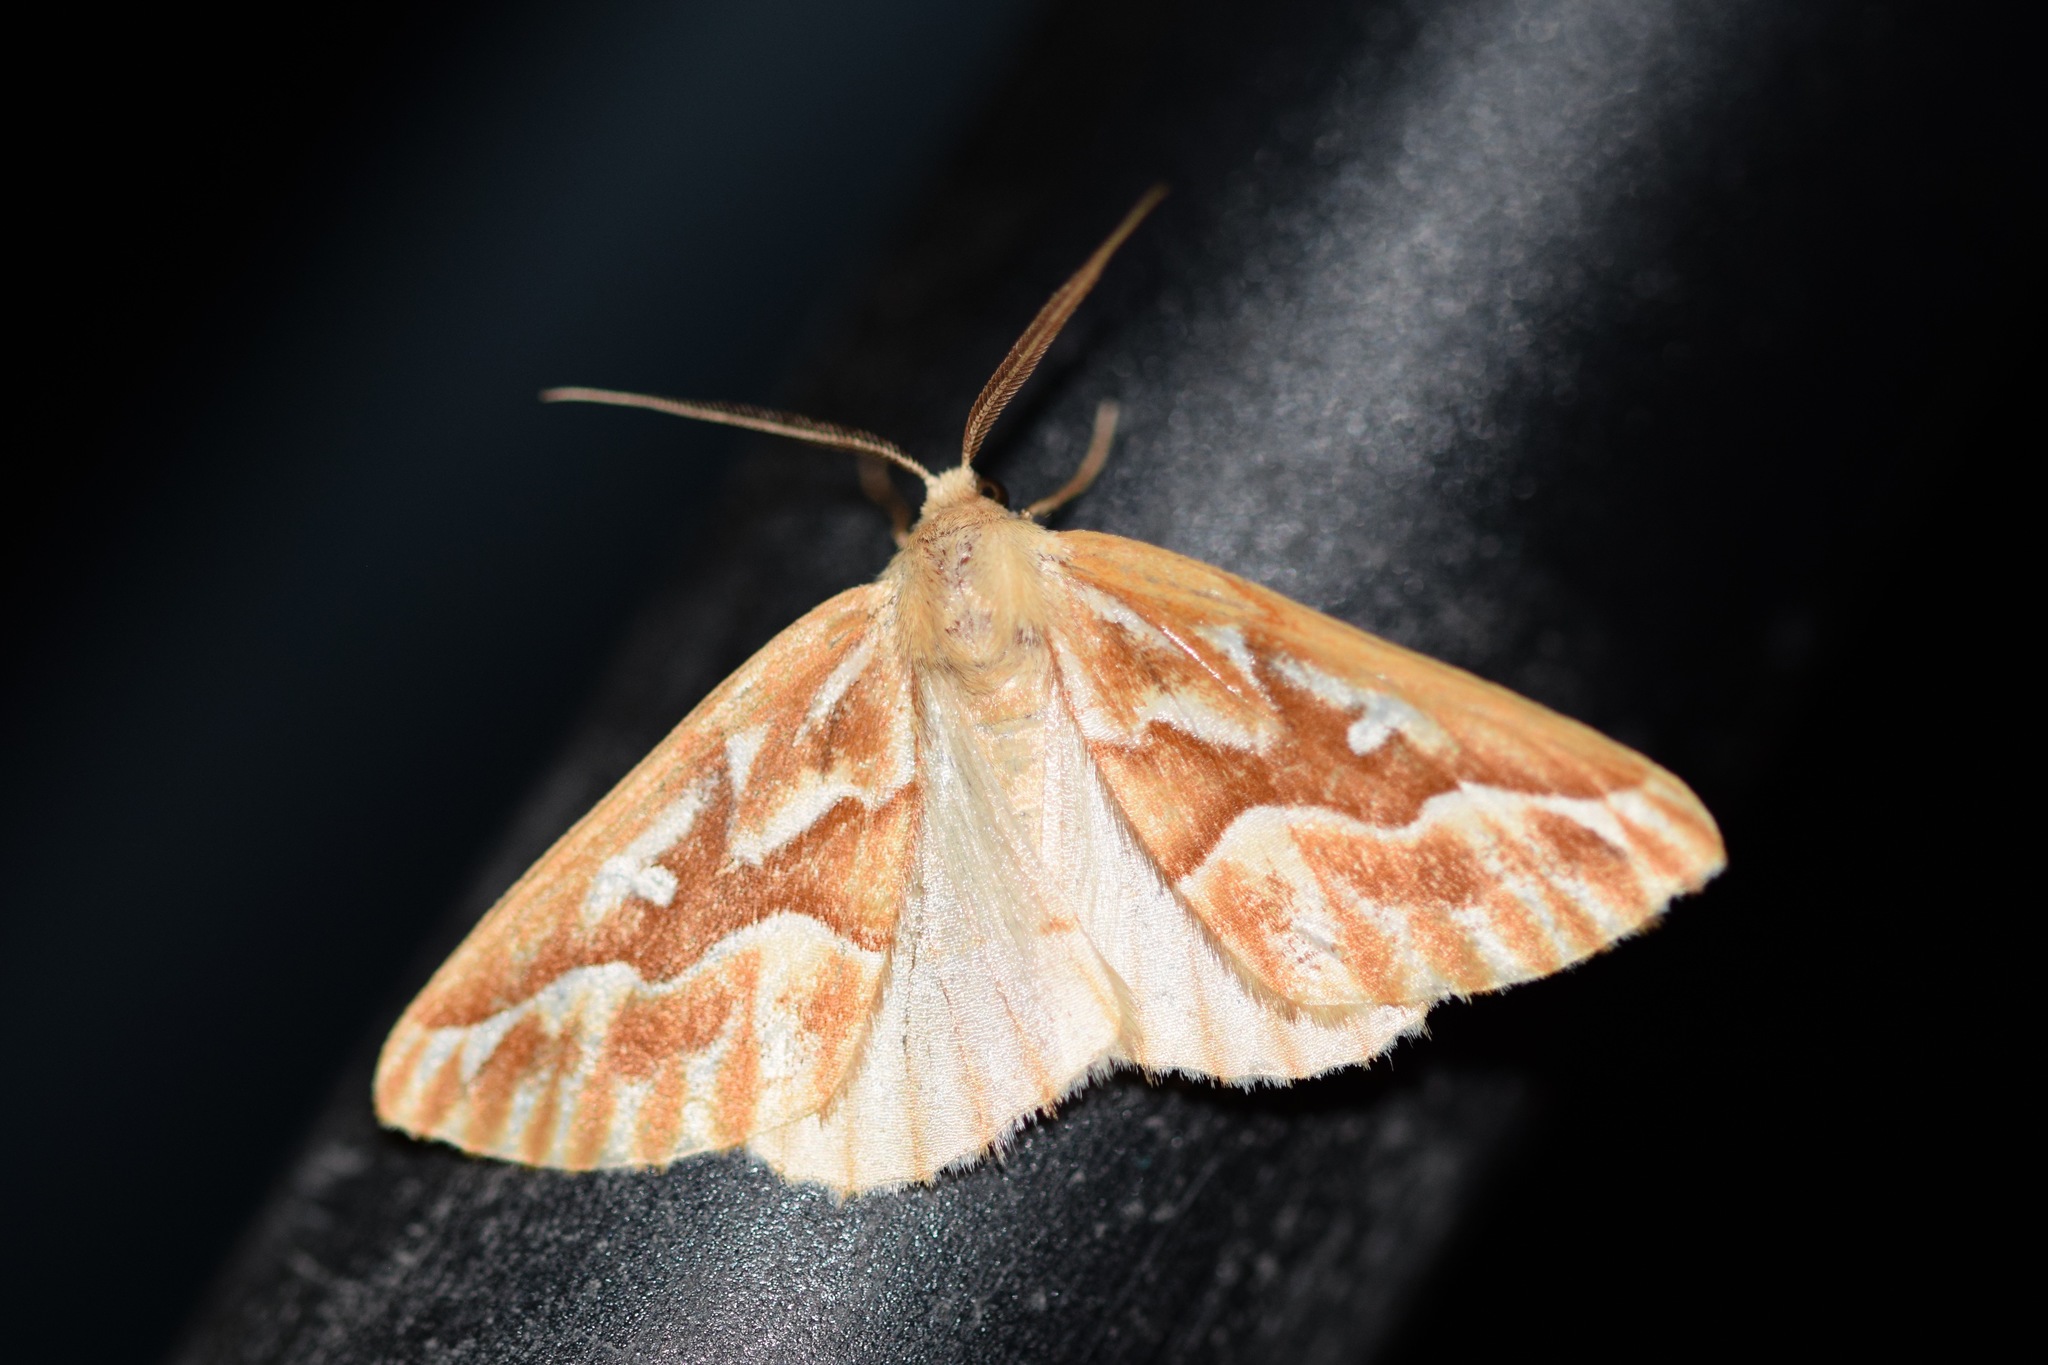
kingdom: Animalia
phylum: Arthropoda
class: Insecta
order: Lepidoptera
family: Geometridae
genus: Caripeta
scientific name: Caripeta piniata
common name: Northern pine looper moth
